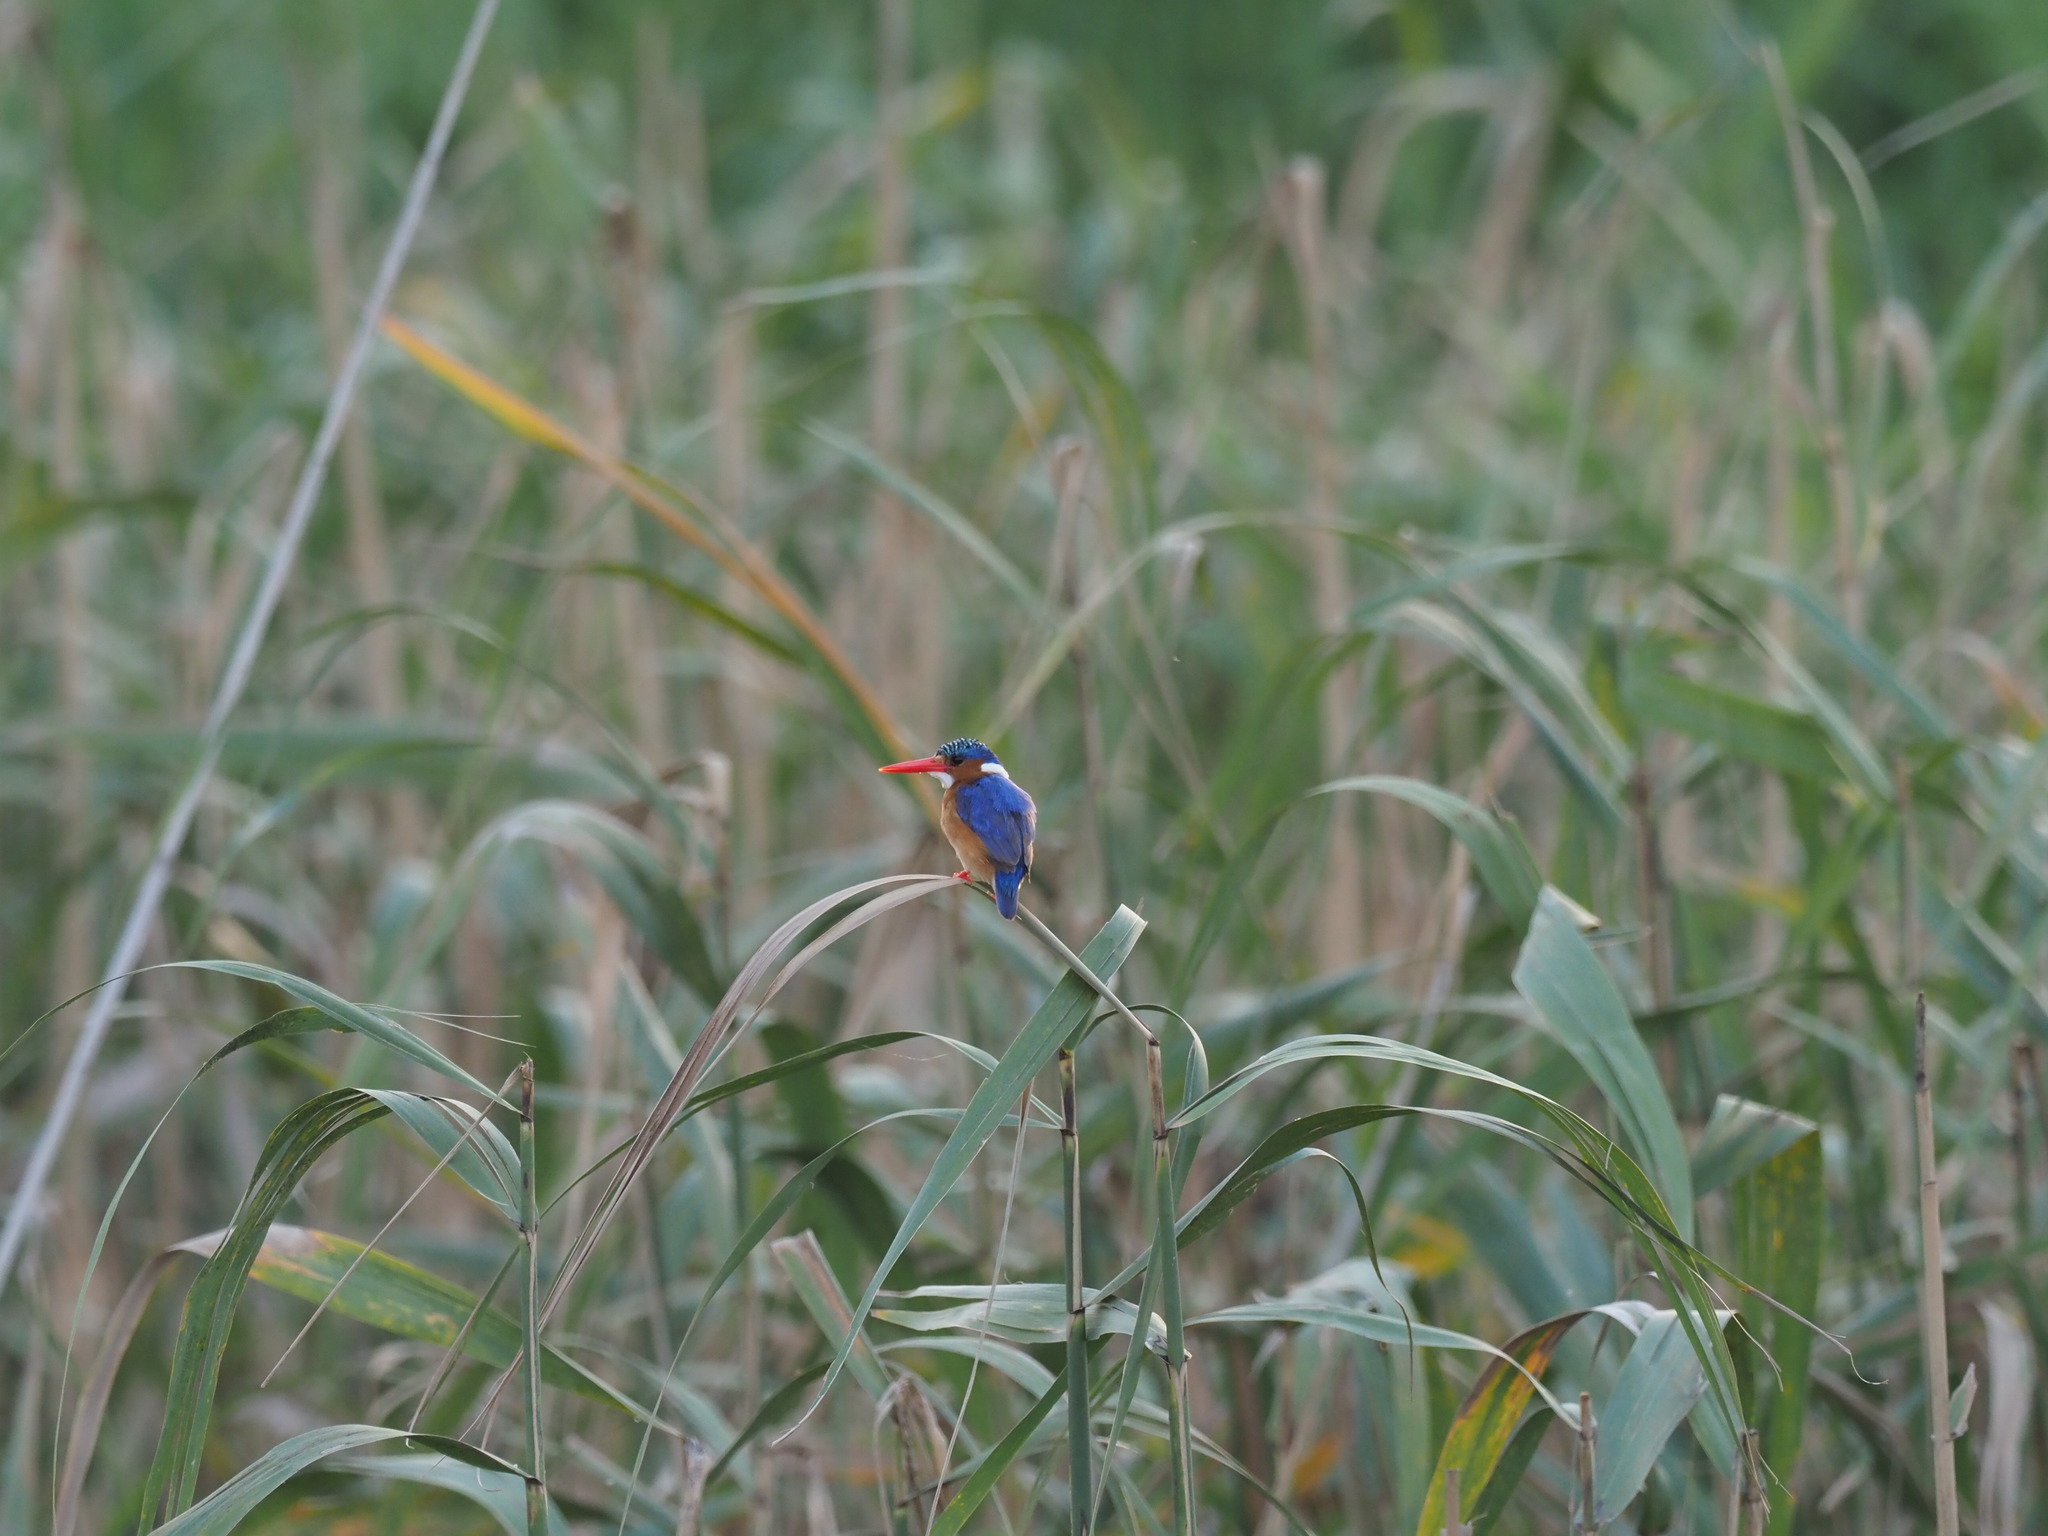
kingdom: Animalia
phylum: Chordata
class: Aves
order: Coraciiformes
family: Alcedinidae
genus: Corythornis
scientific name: Corythornis cristatus
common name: Malachite kingfisher
